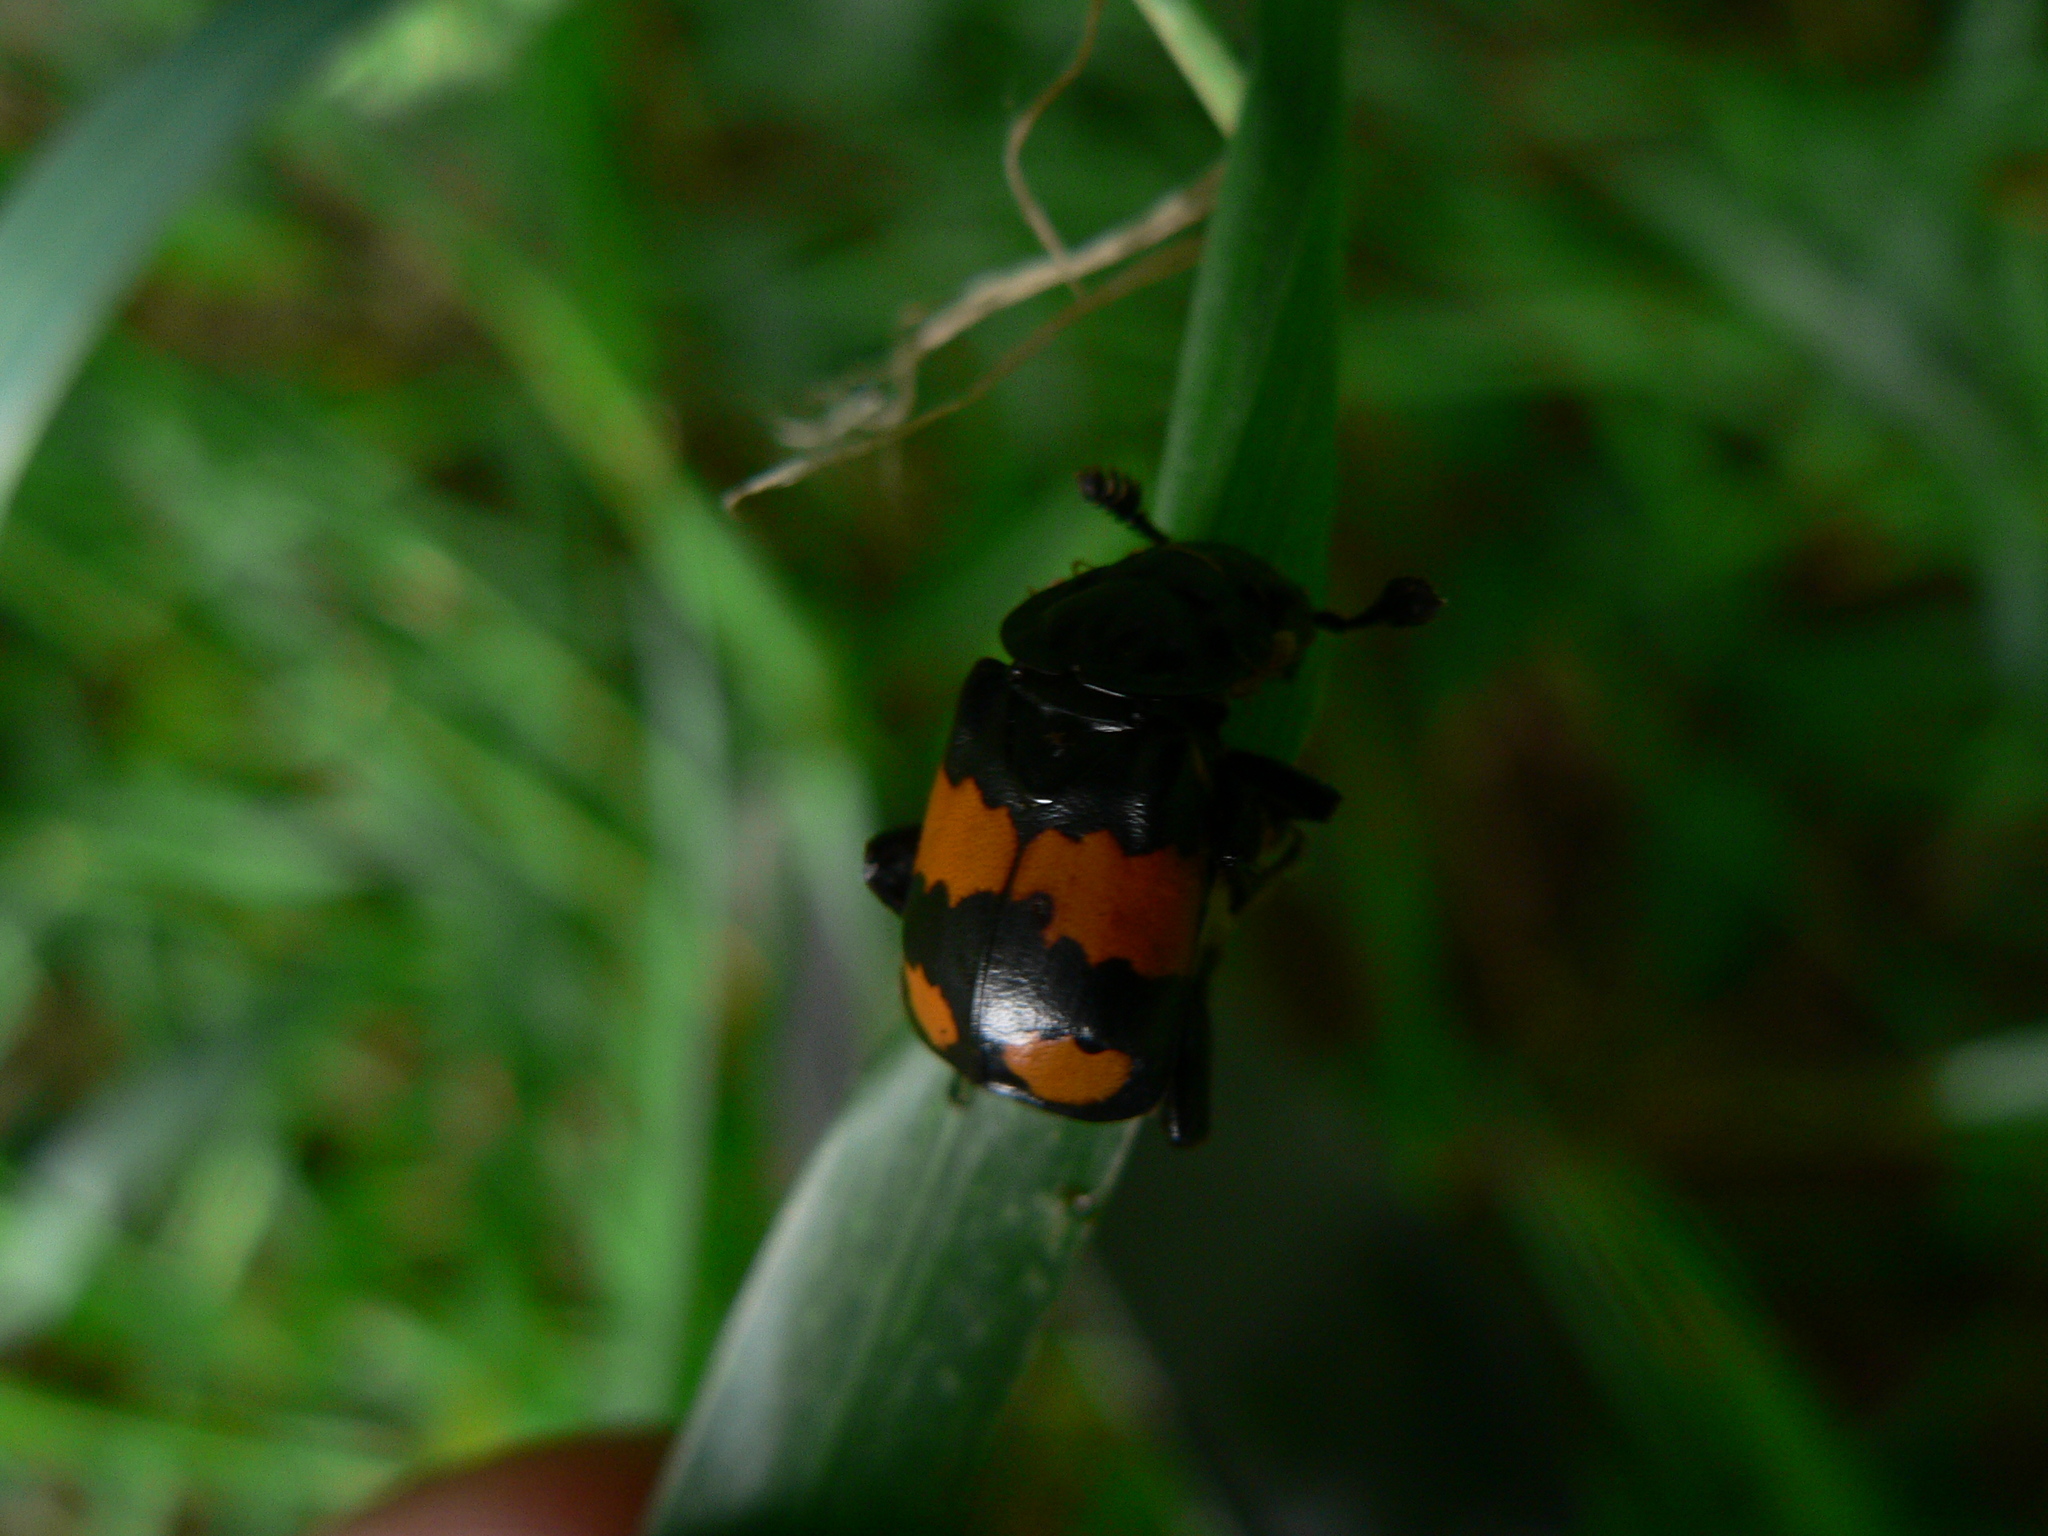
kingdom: Animalia
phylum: Arthropoda
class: Insecta
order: Coleoptera
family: Staphylinidae
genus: Nicrophorus
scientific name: Nicrophorus vespilloides
